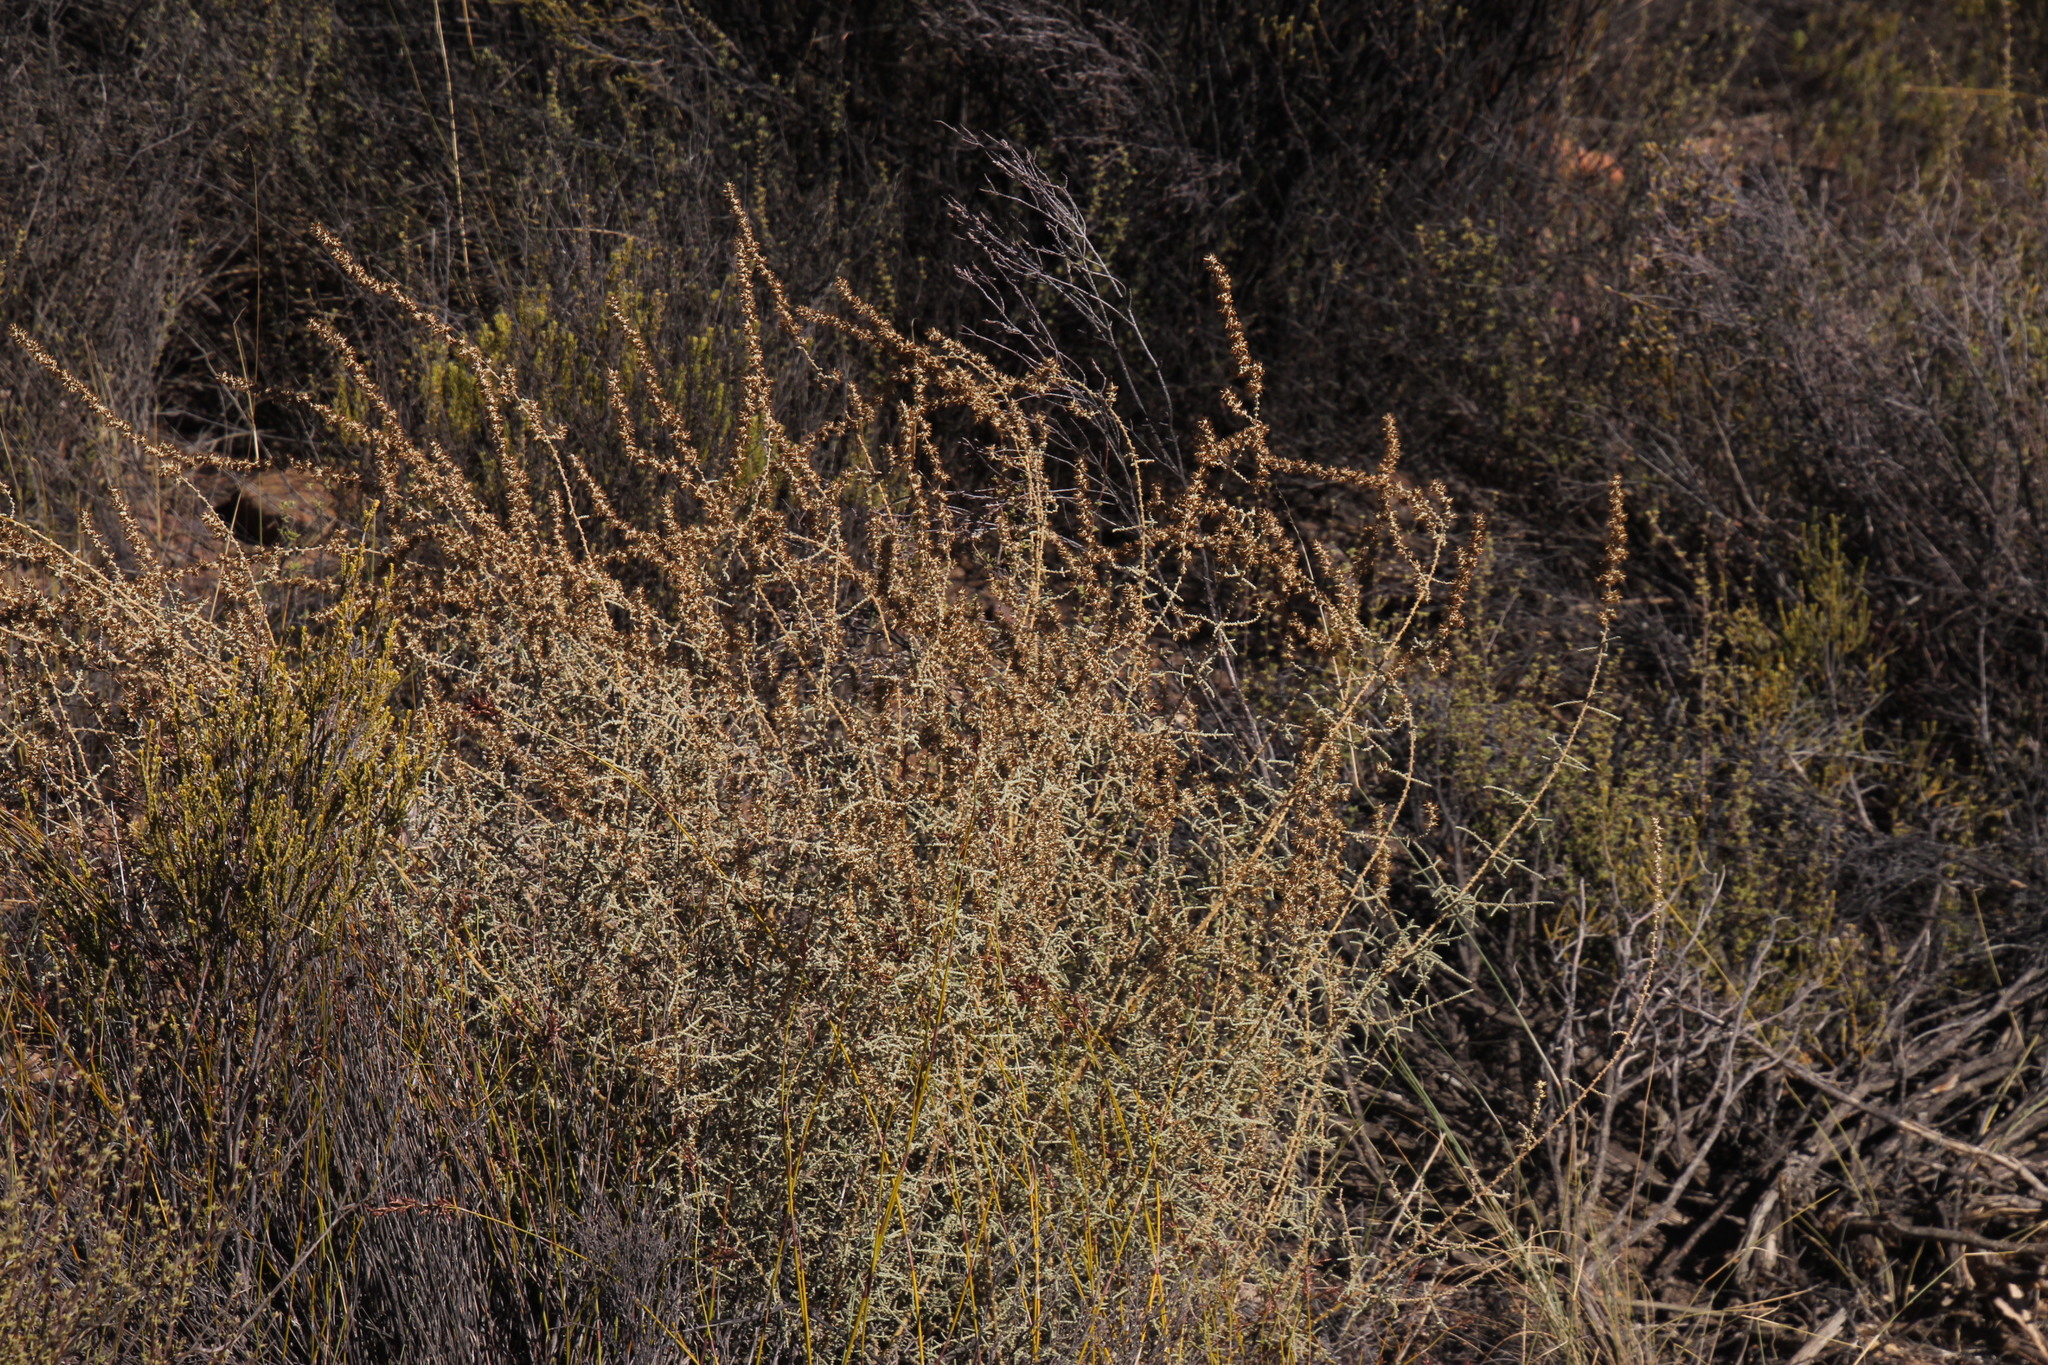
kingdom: Plantae
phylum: Tracheophyta
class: Magnoliopsida
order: Asterales
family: Asteraceae
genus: Seriphium
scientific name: Seriphium plumosum
